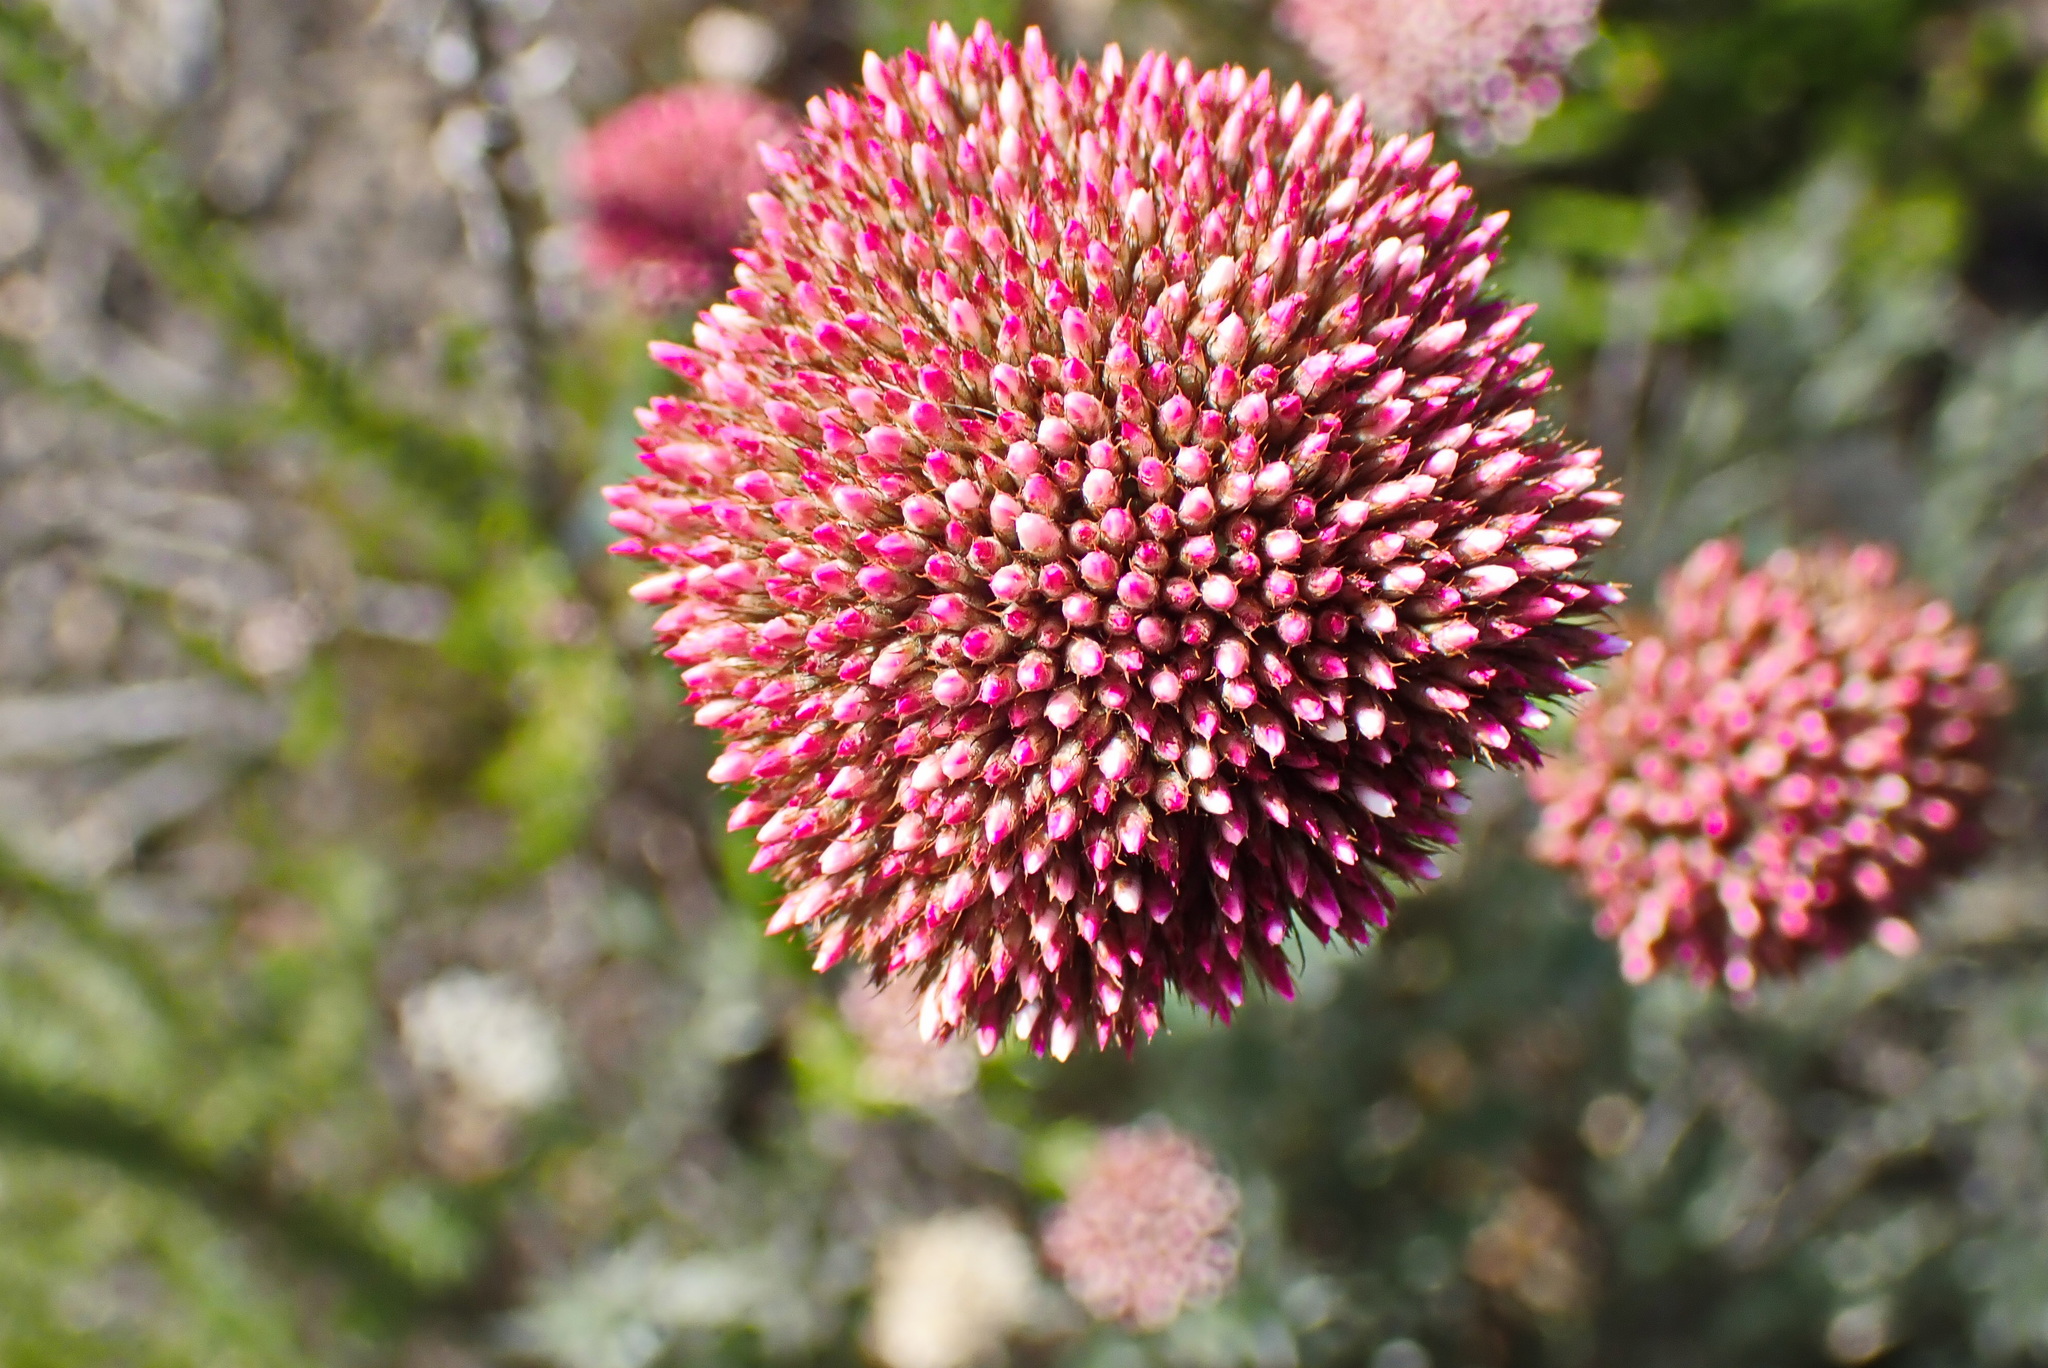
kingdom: Plantae
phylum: Tracheophyta
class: Magnoliopsida
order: Asterales
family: Asteraceae
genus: Metalasia
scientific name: Metalasia pungens
